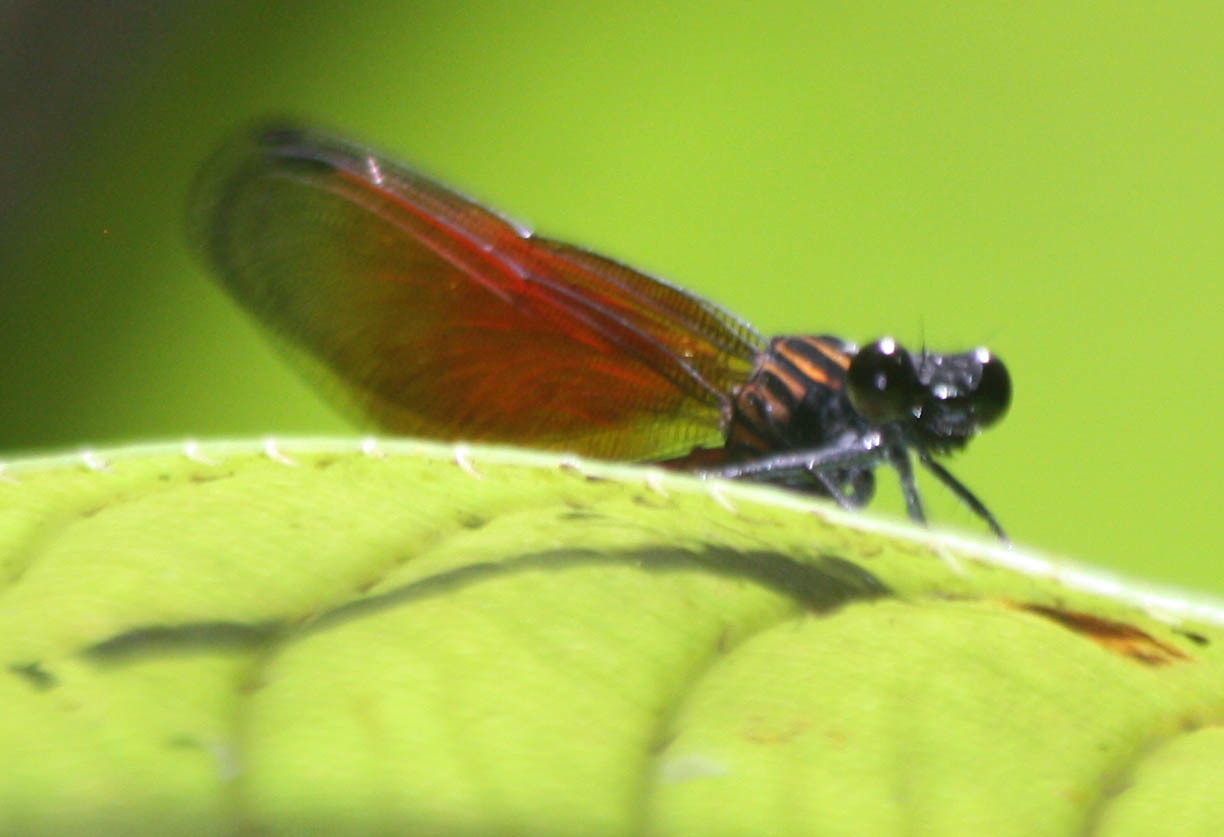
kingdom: Animalia
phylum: Arthropoda
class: Insecta
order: Odonata
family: Euphaeidae
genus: Euphaea
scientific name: Euphaea ochracea
